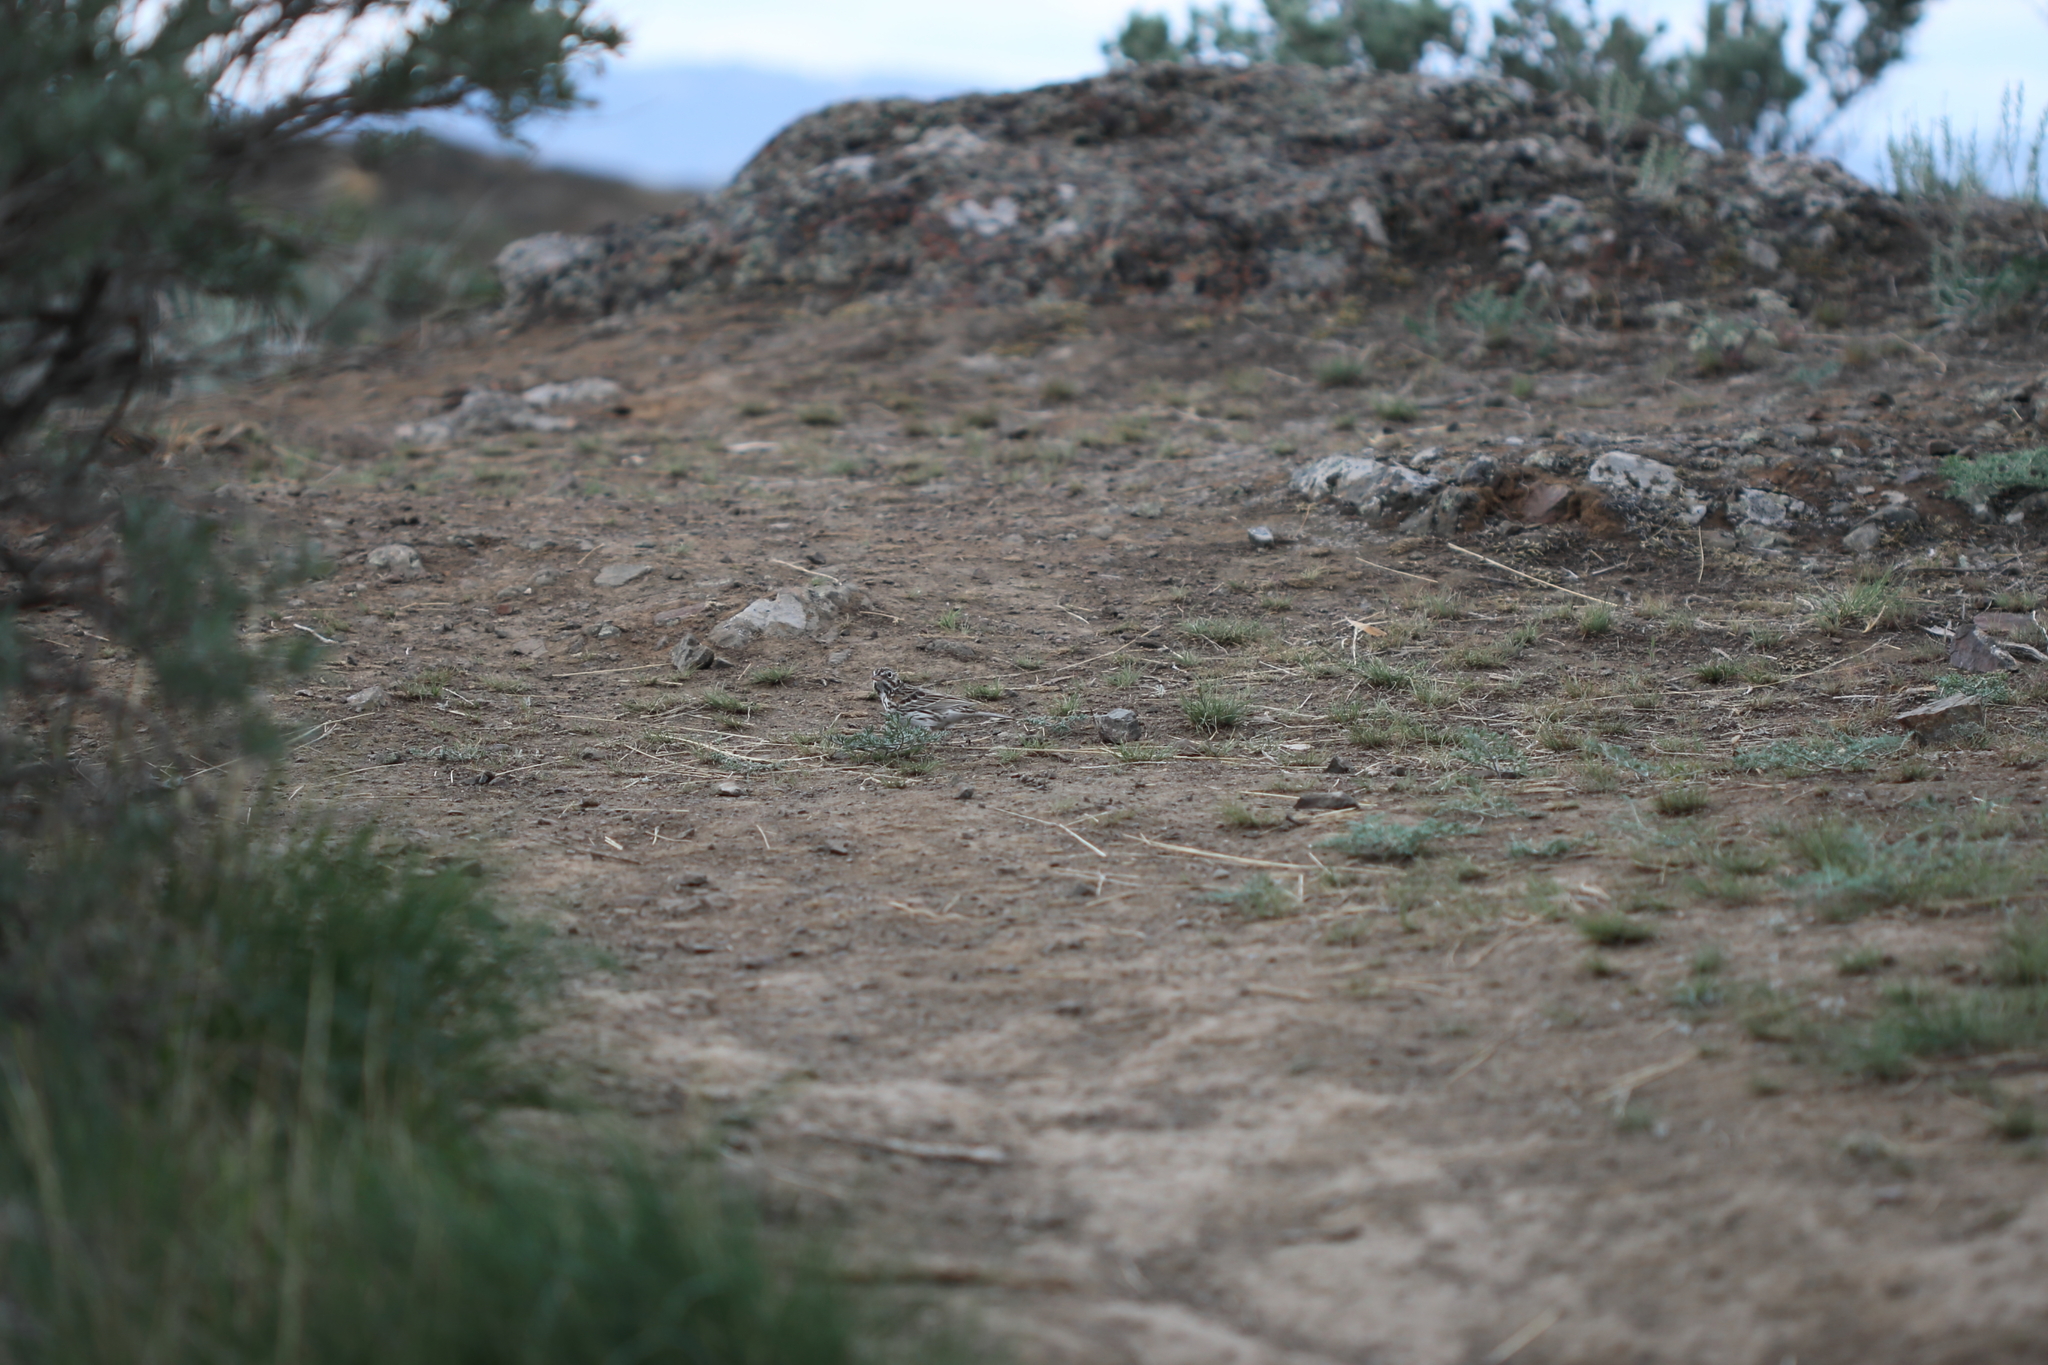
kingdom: Animalia
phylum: Chordata
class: Aves
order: Passeriformes
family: Passerellidae
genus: Pooecetes
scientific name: Pooecetes gramineus
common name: Vesper sparrow
